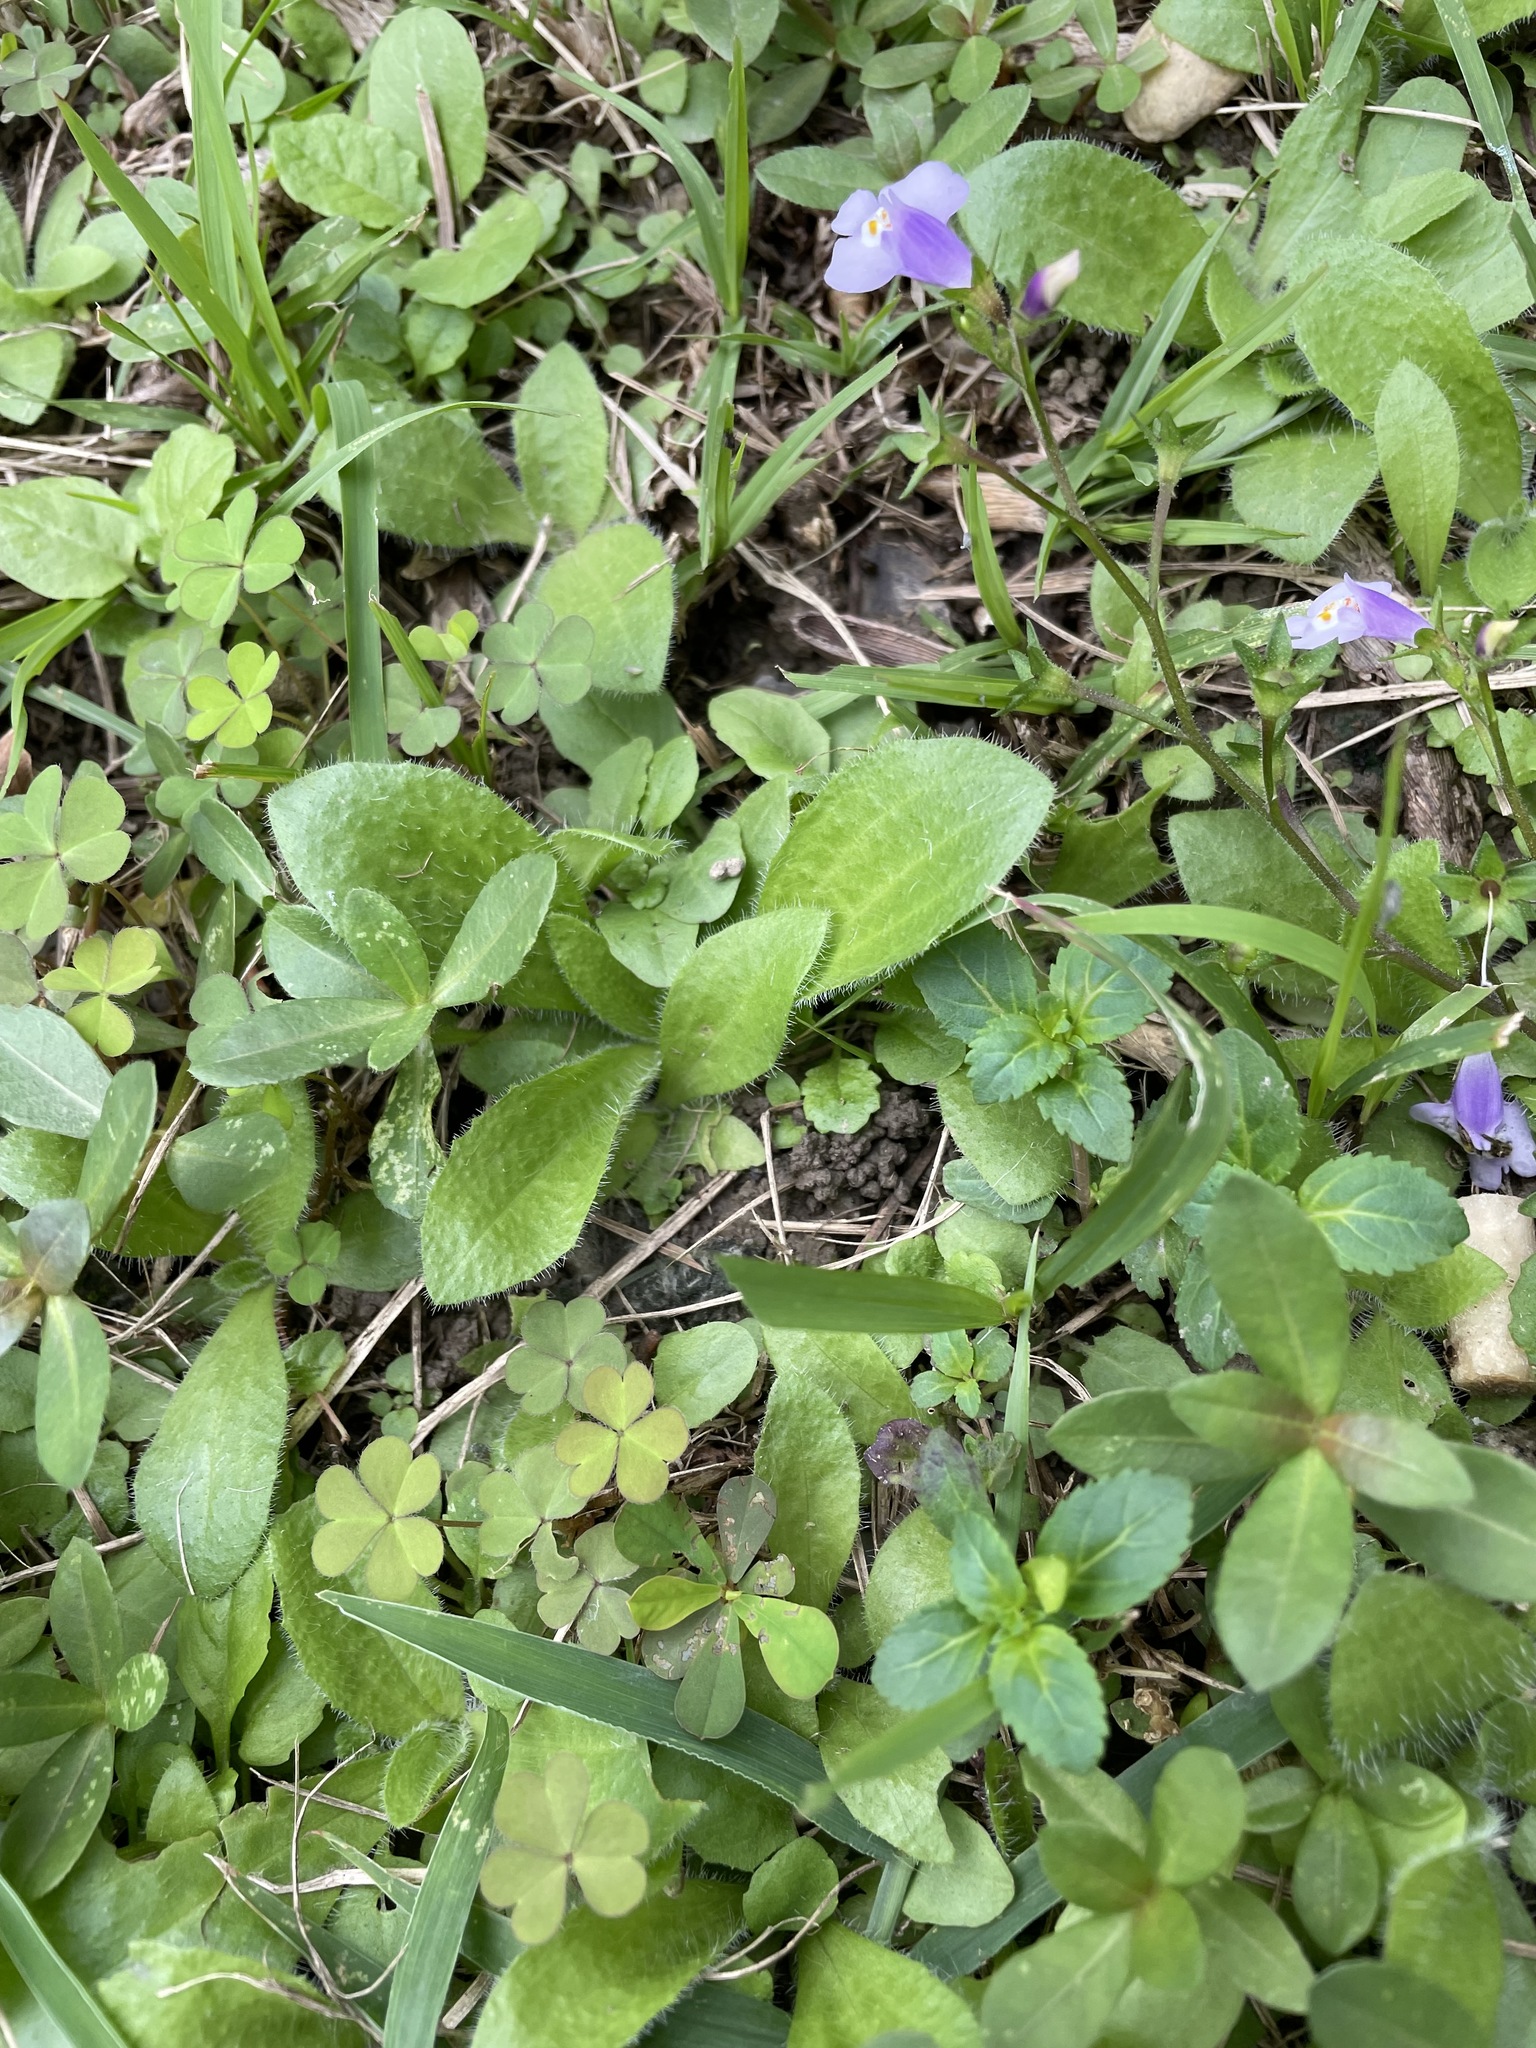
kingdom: Plantae
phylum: Tracheophyta
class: Magnoliopsida
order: Lamiales
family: Plantaginaceae
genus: Plantago
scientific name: Plantago virginica
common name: Hoary plantain
